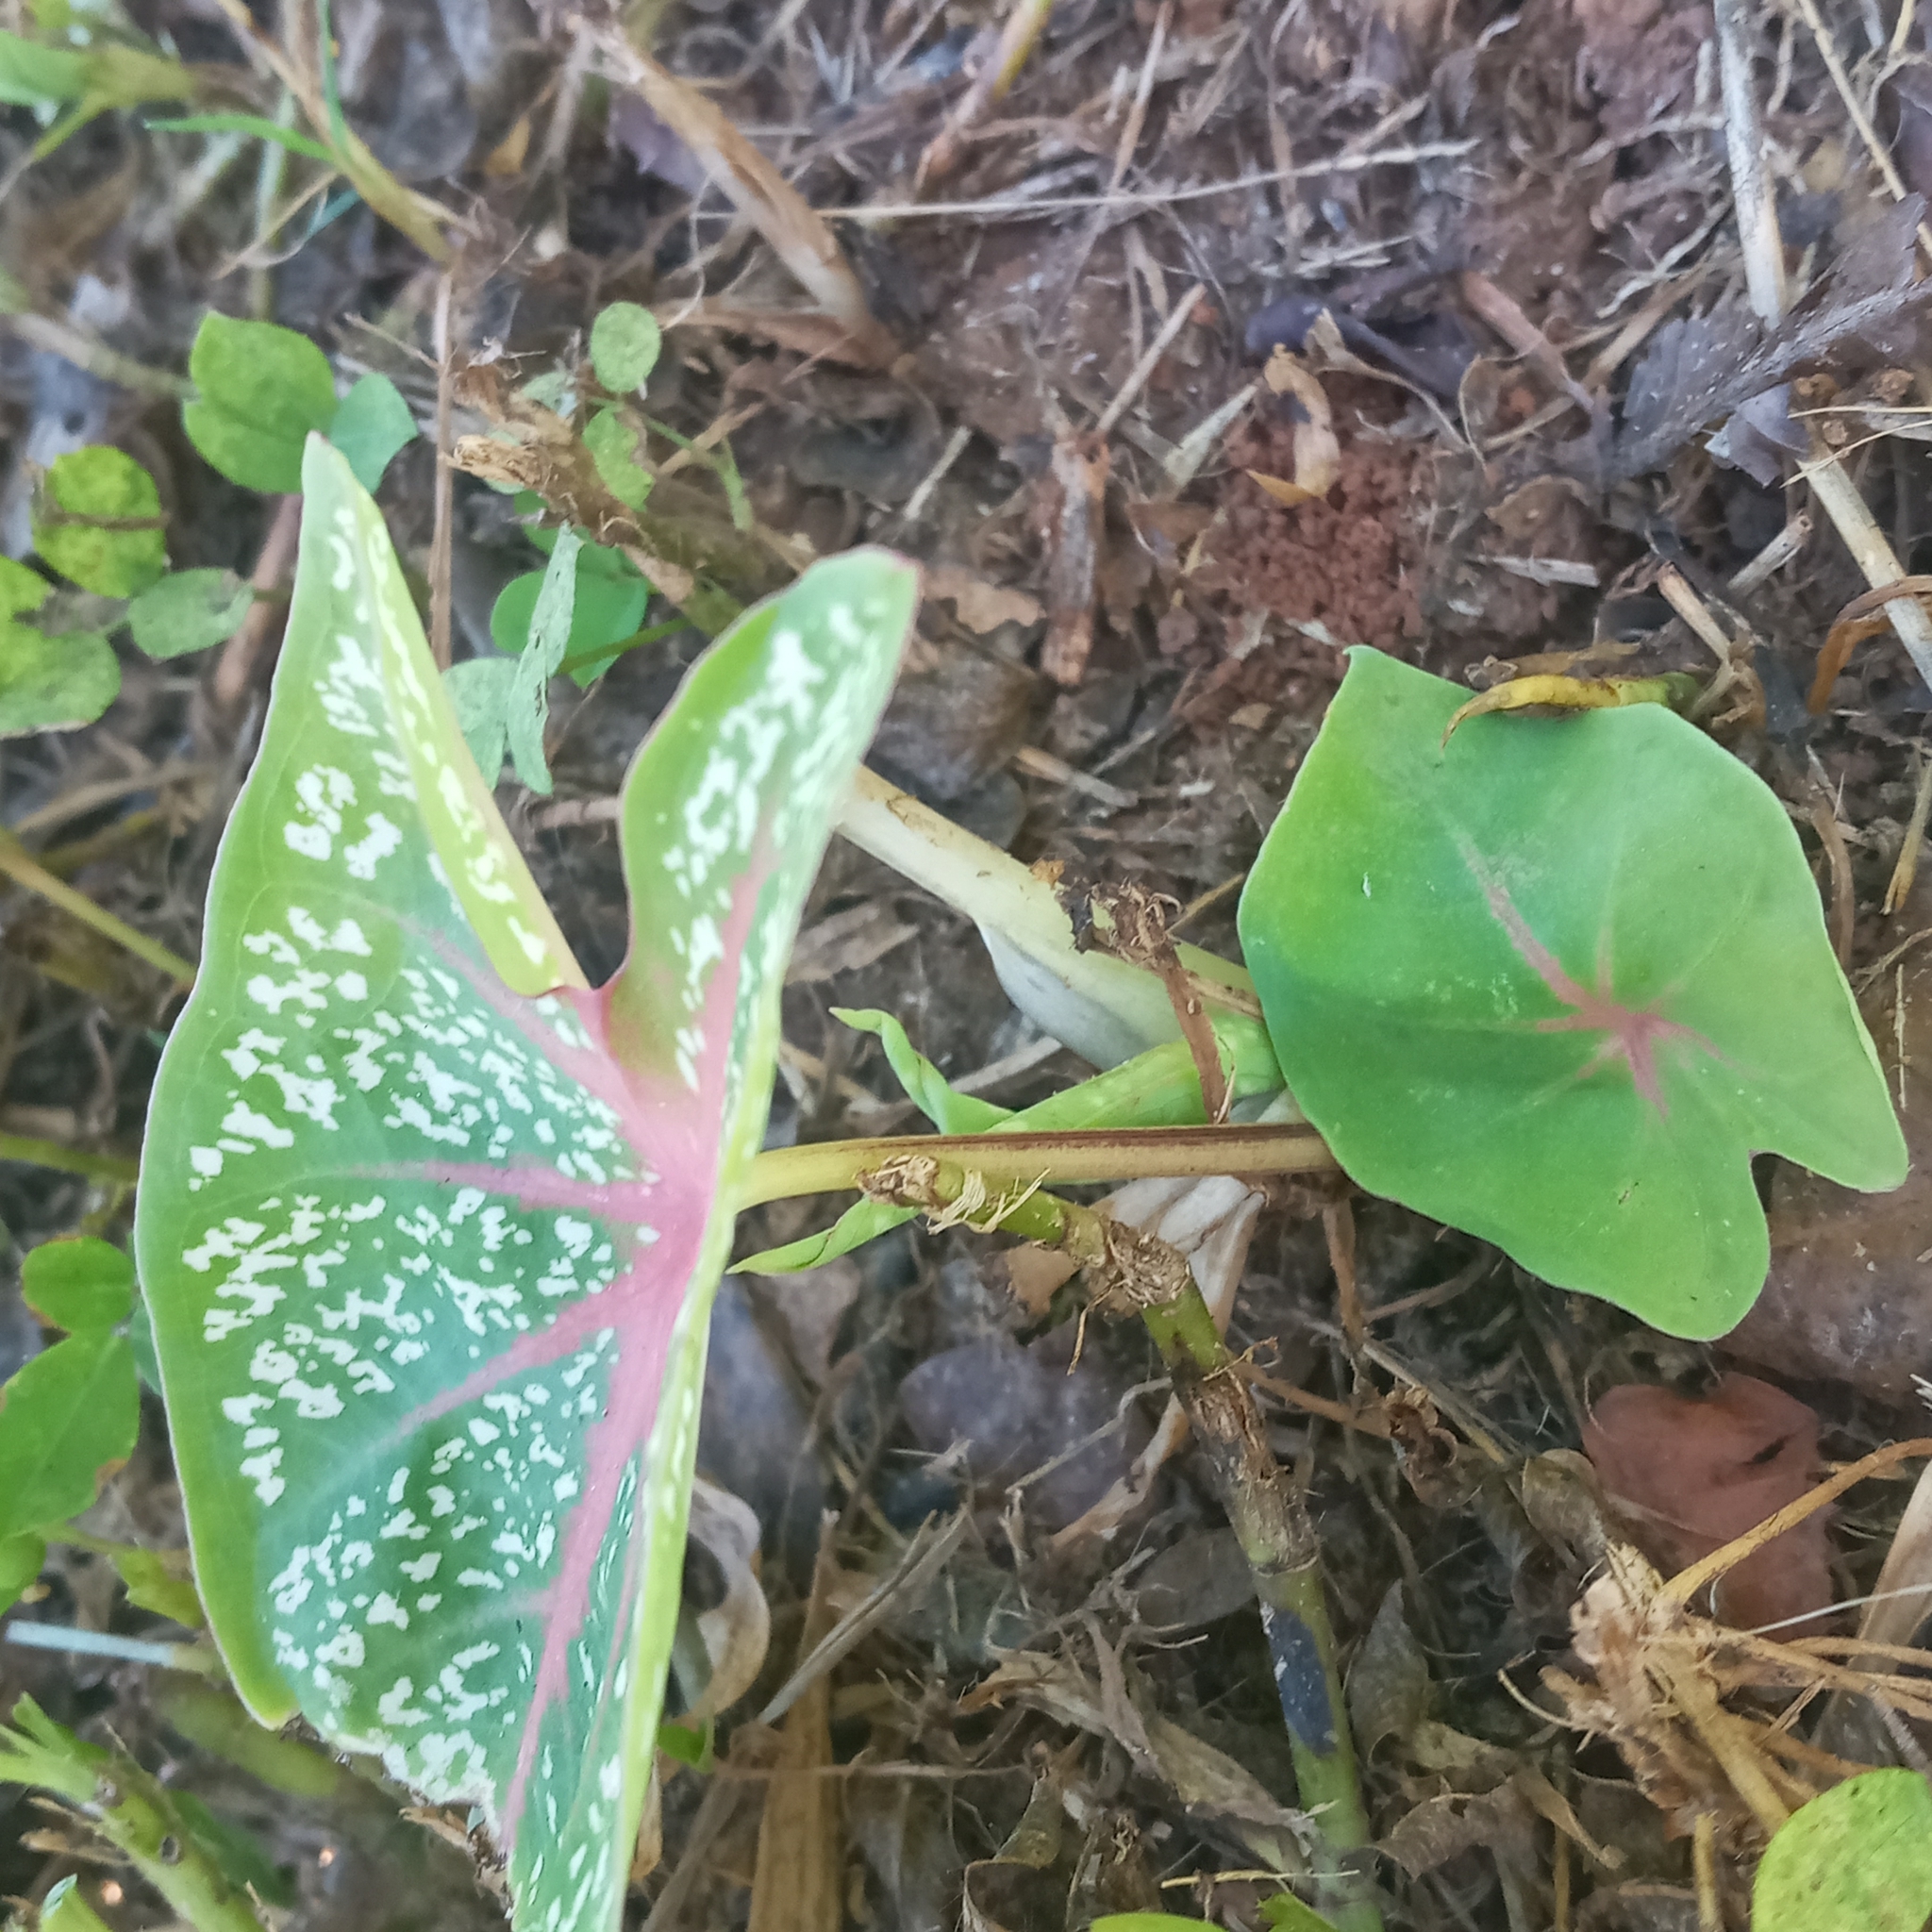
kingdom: Plantae
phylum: Tracheophyta
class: Liliopsida
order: Alismatales
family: Araceae
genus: Caladium
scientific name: Caladium bicolor
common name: Artist's pallet
